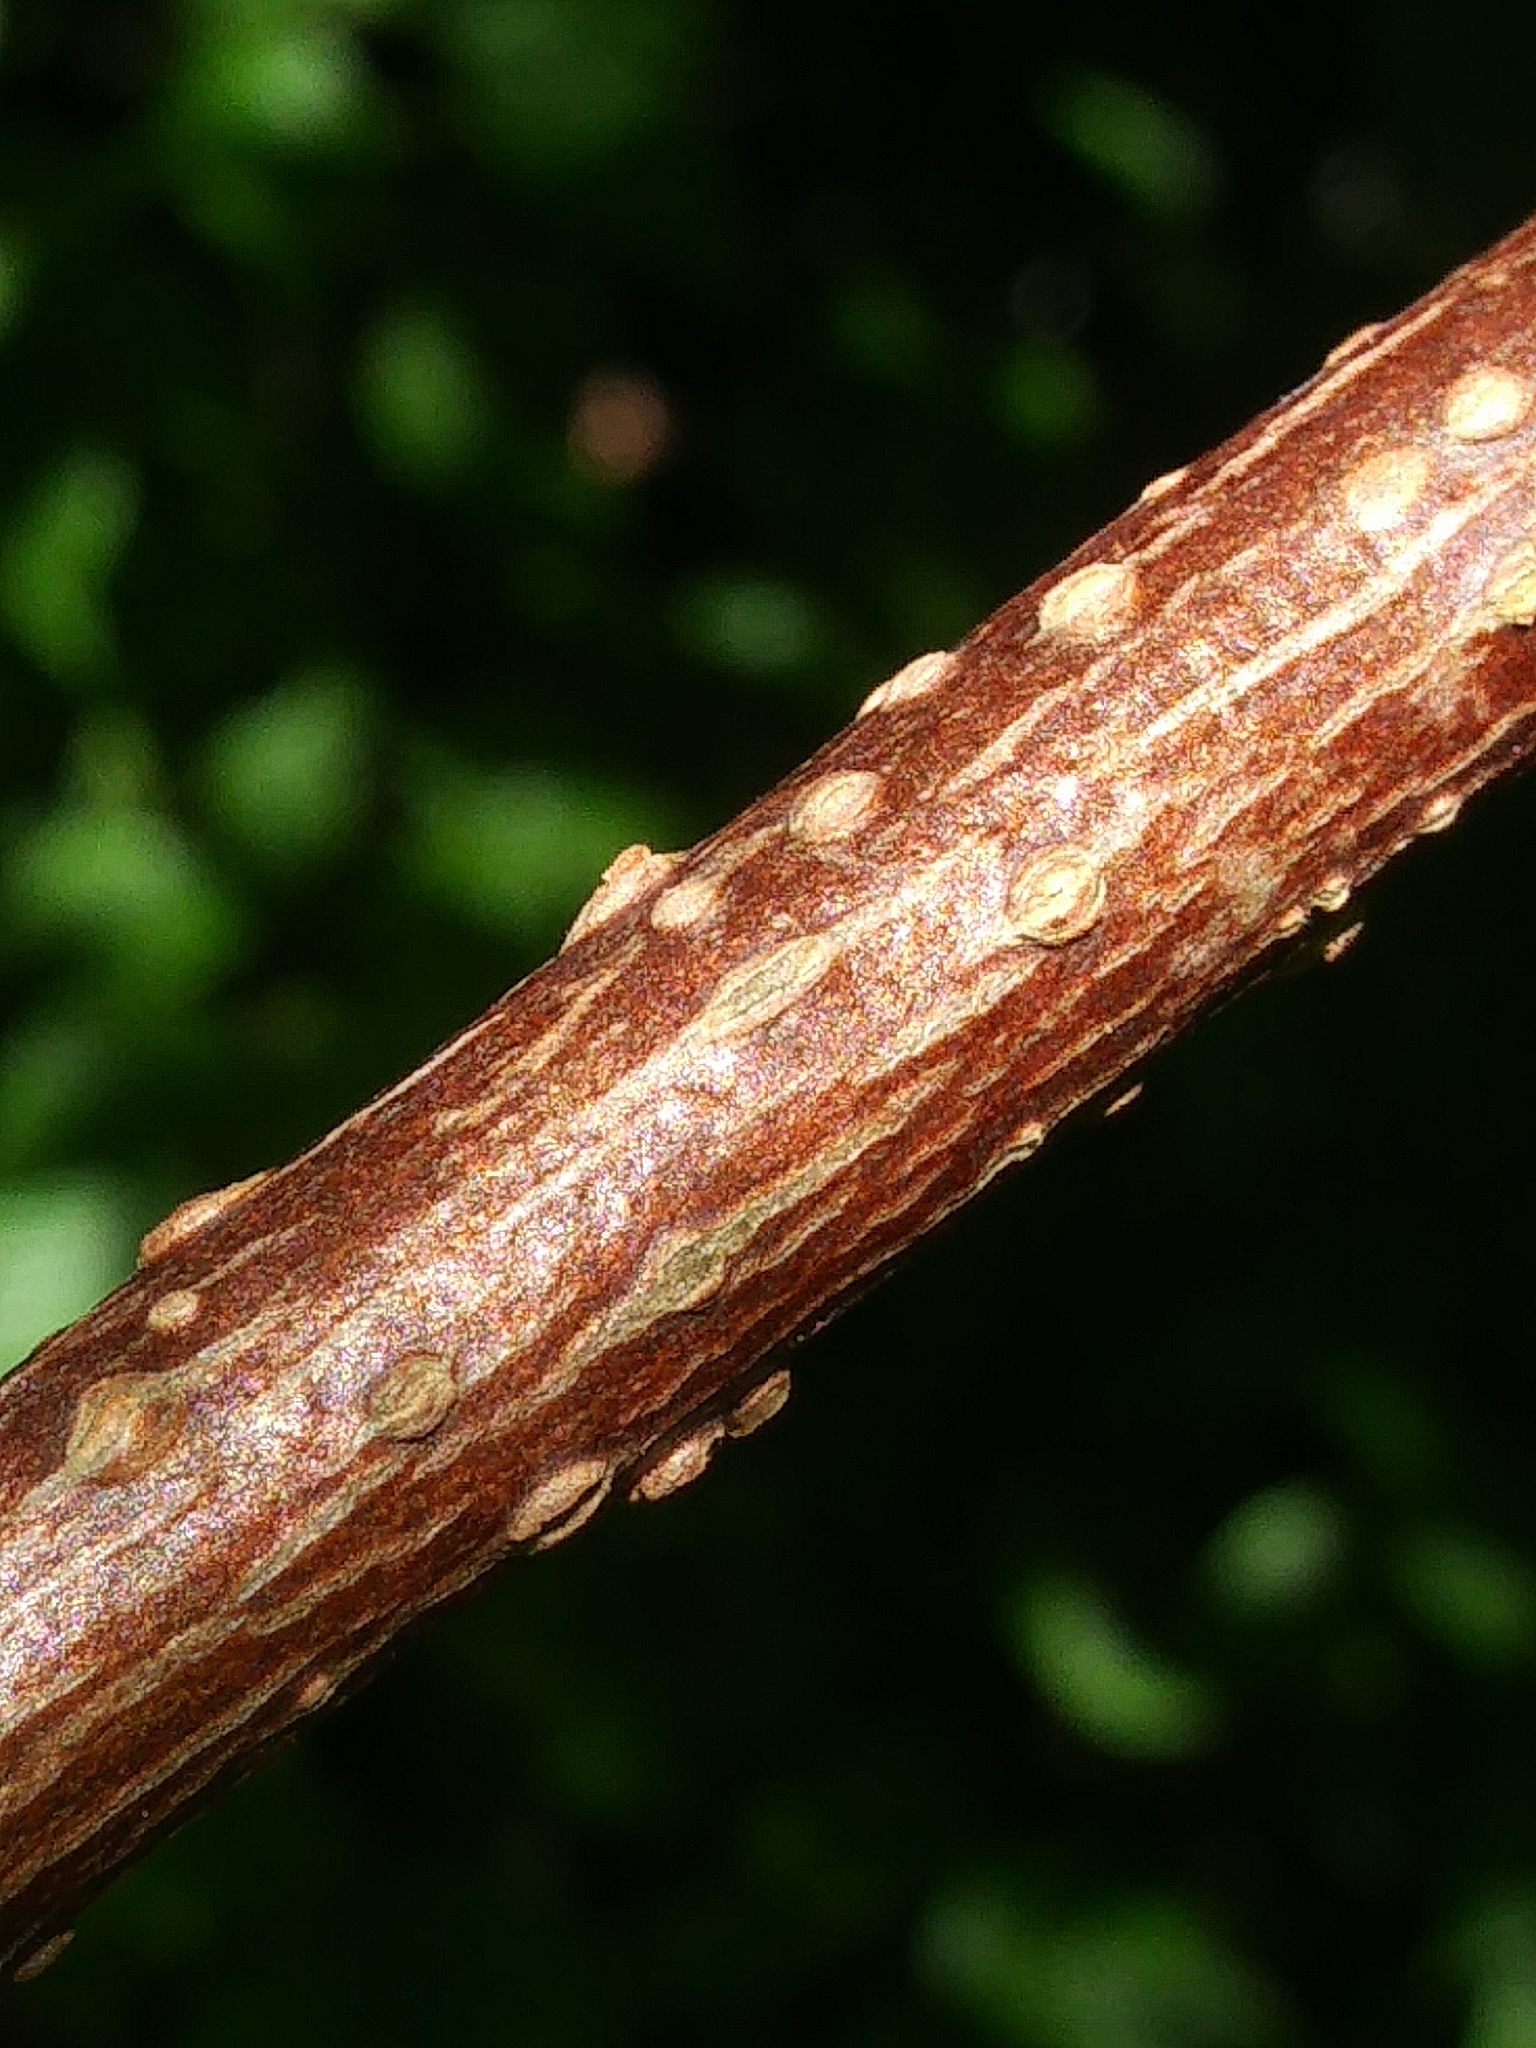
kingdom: Plantae
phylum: Tracheophyta
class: Magnoliopsida
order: Dipsacales
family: Viburnaceae
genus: Sambucus
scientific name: Sambucus racemosa
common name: Red-berried elder
